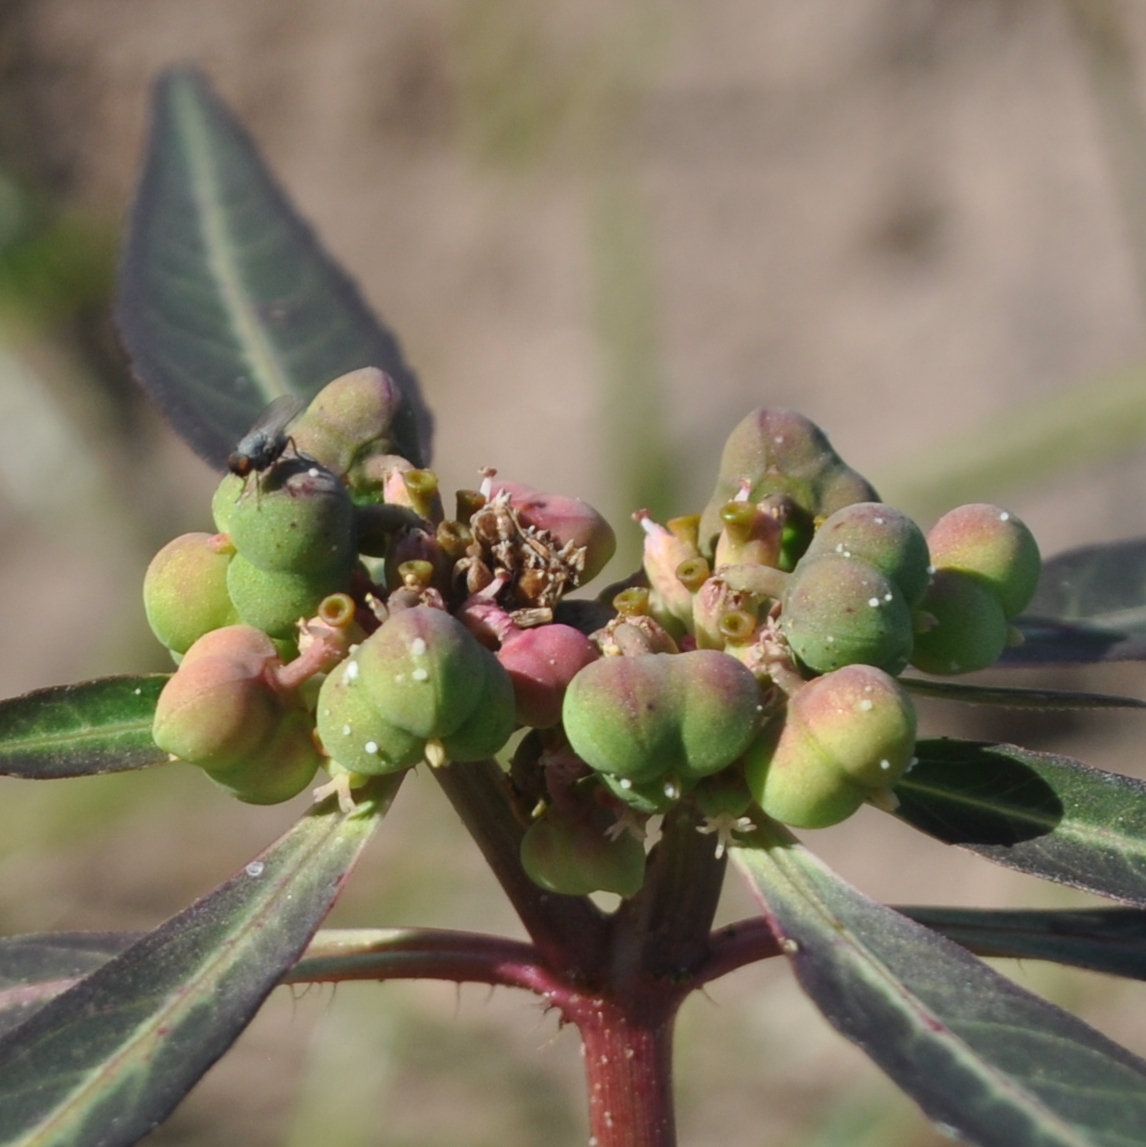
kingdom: Plantae
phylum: Tracheophyta
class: Magnoliopsida
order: Malpighiales
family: Euphorbiaceae
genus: Euphorbia
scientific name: Euphorbia heterophylla
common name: Mexican fireplant
